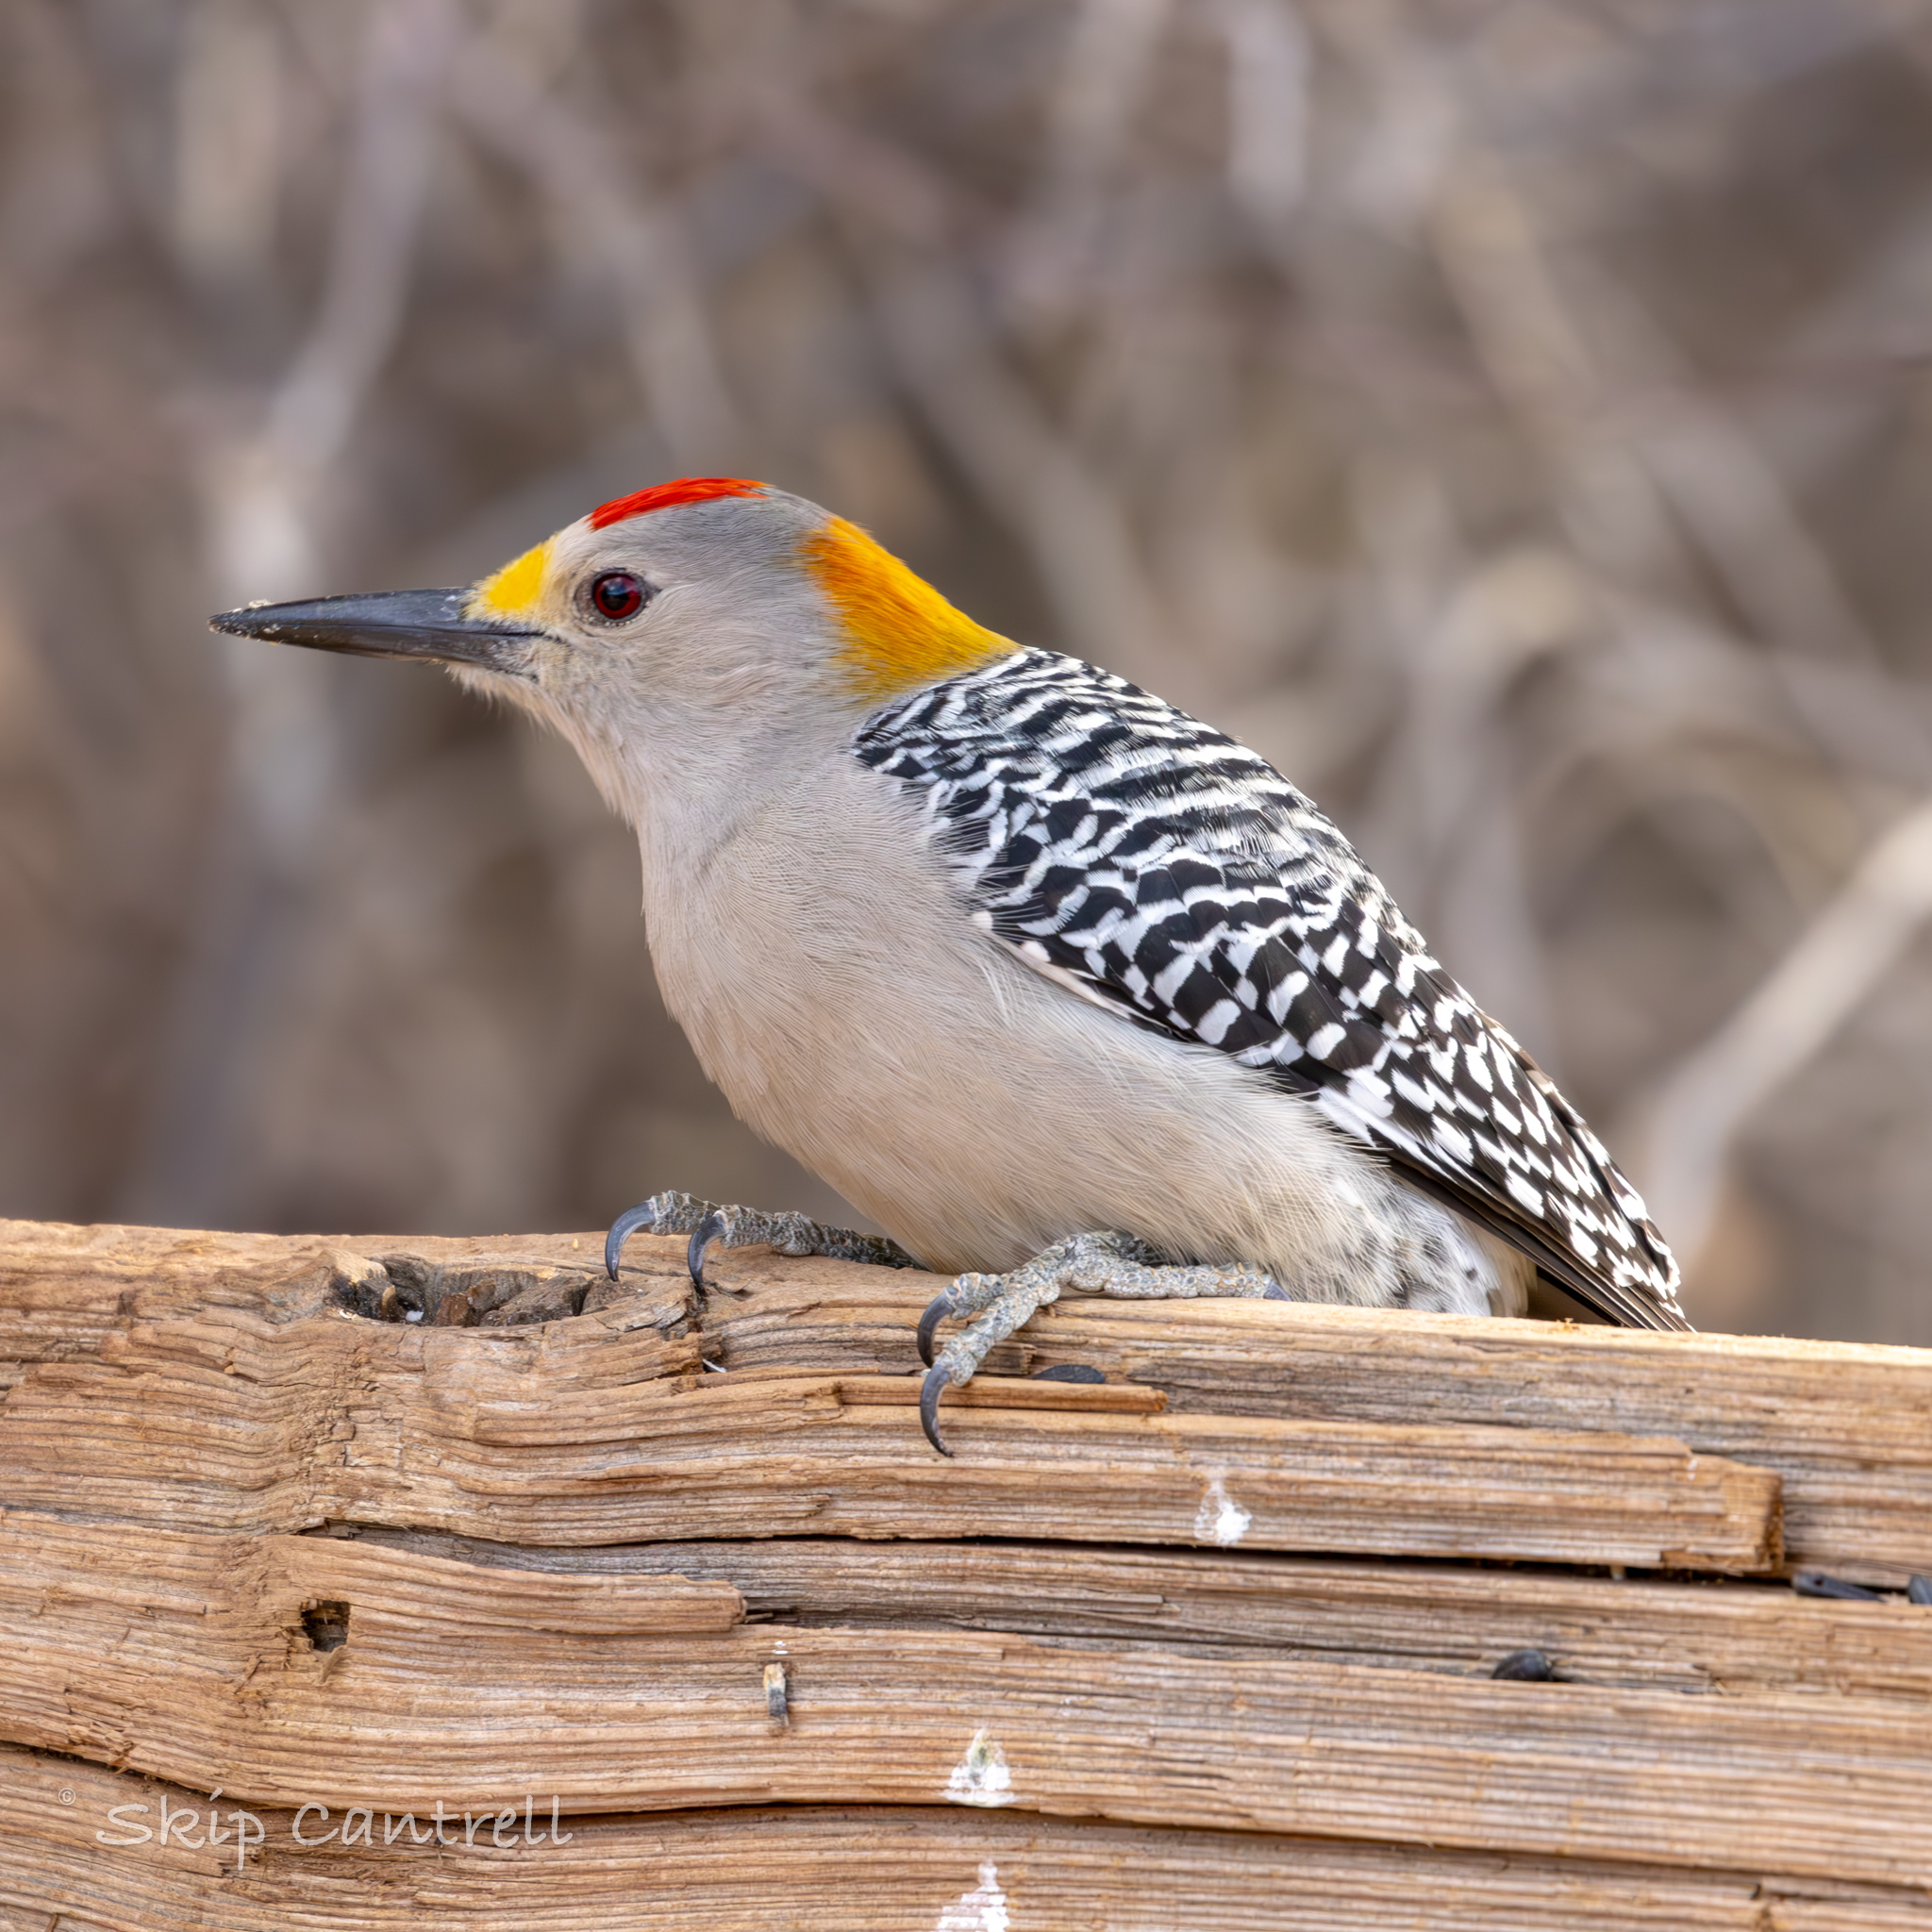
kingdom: Animalia
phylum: Chordata
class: Aves
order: Piciformes
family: Picidae
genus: Melanerpes
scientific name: Melanerpes aurifrons
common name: Golden-fronted woodpecker
